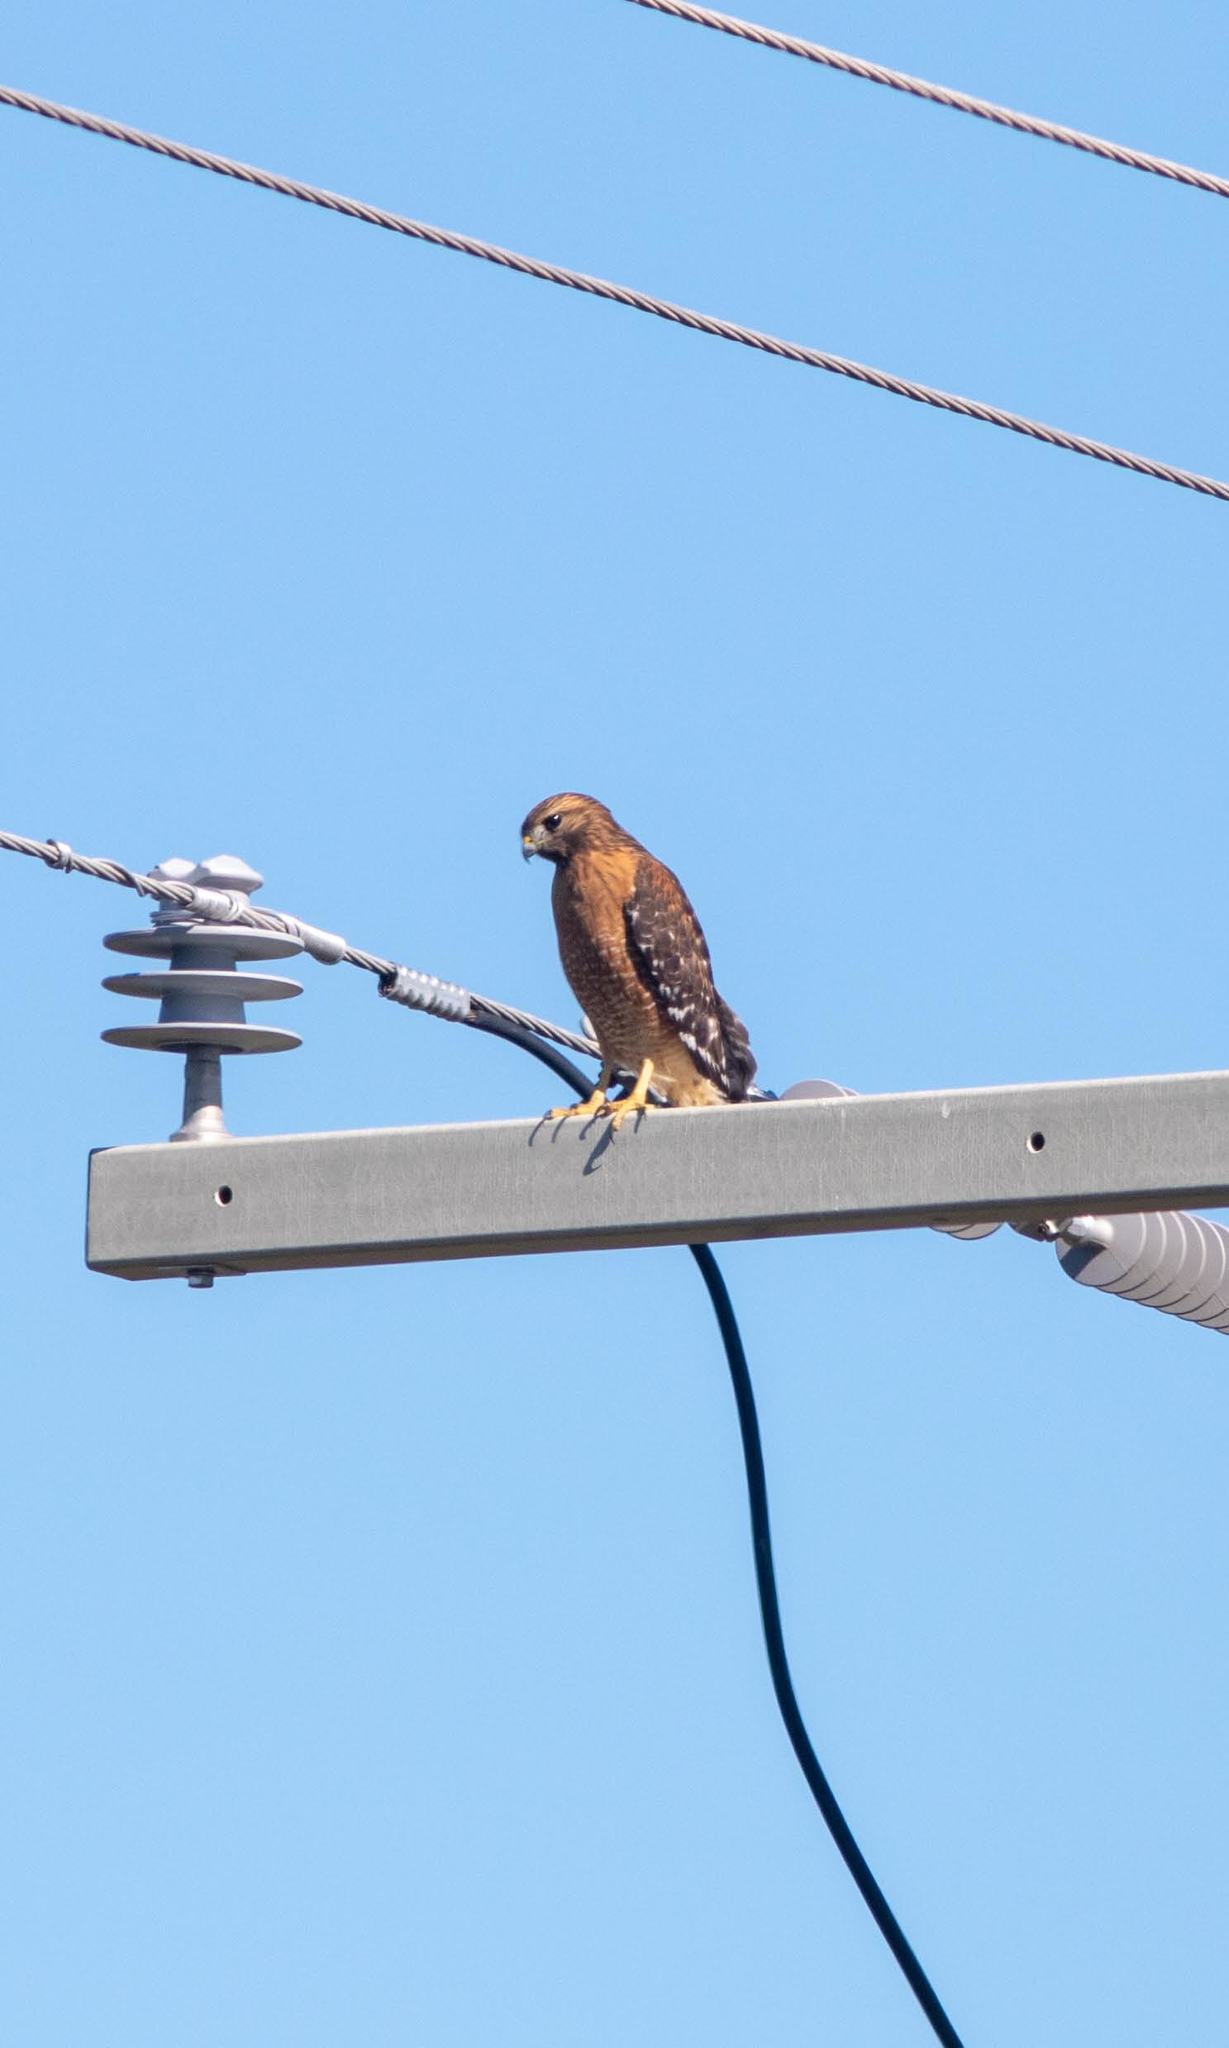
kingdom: Animalia
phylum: Chordata
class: Aves
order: Accipitriformes
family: Accipitridae
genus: Buteo
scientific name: Buteo lineatus
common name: Red-shouldered hawk
